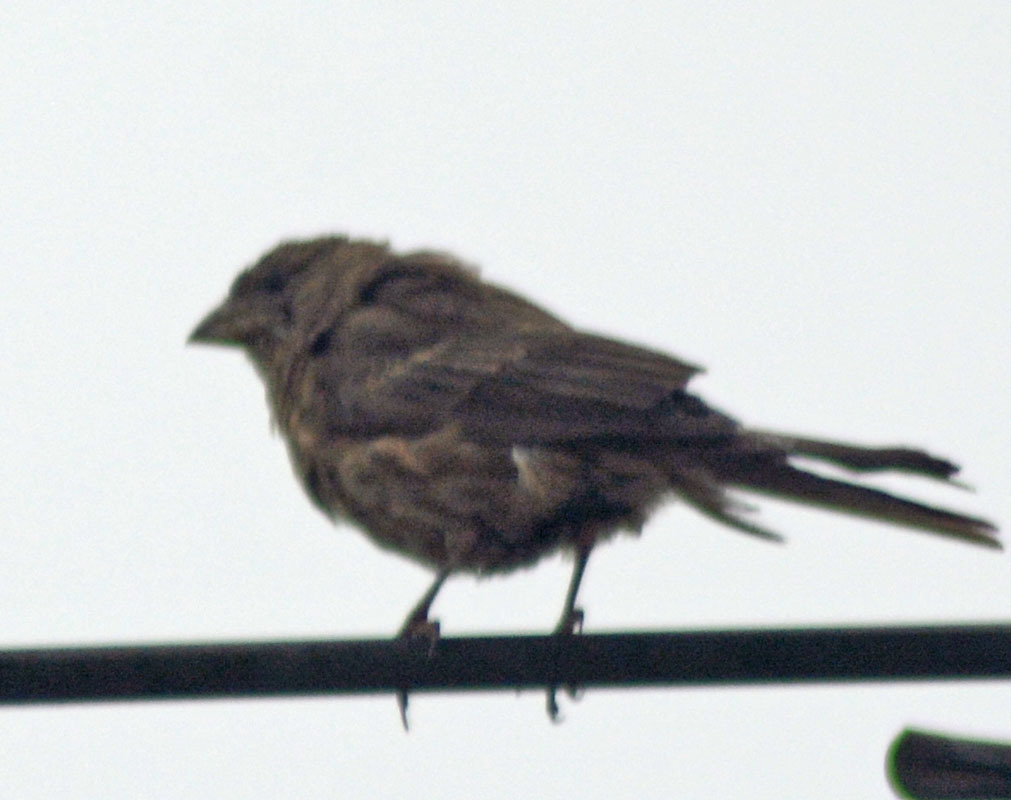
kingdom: Animalia
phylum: Chordata
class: Aves
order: Passeriformes
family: Fringillidae
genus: Haemorhous
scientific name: Haemorhous mexicanus
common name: House finch
